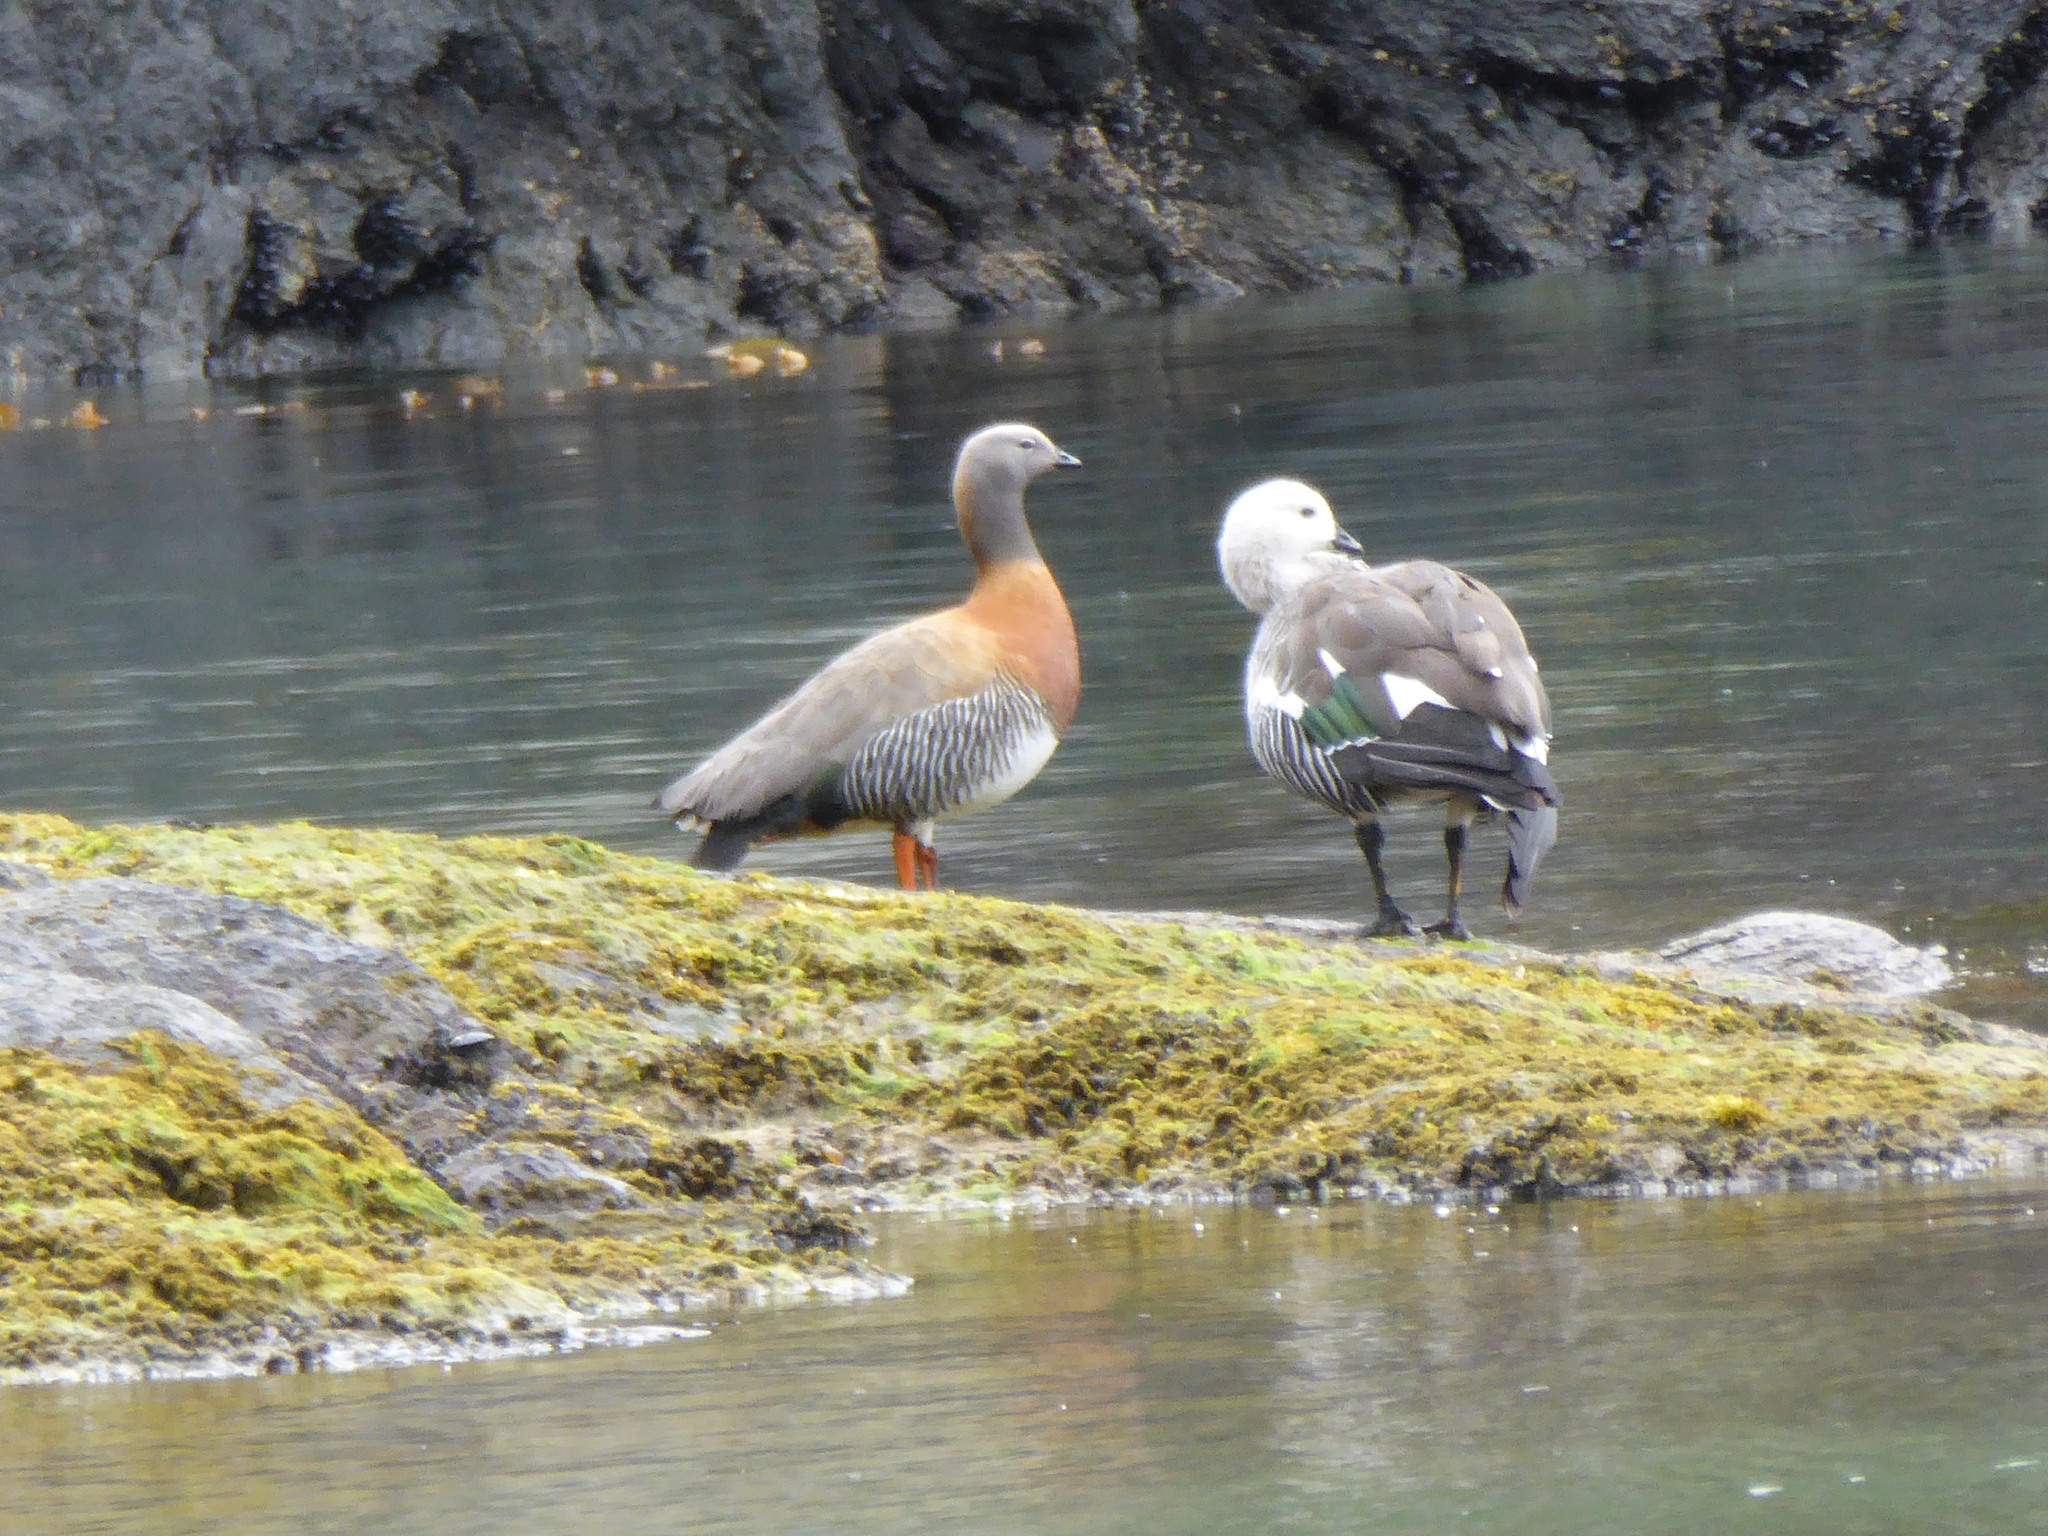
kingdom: Animalia
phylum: Chordata
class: Aves
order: Anseriformes
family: Anatidae
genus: Chloephaga
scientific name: Chloephaga poliocephala
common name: Ashy-headed goose
